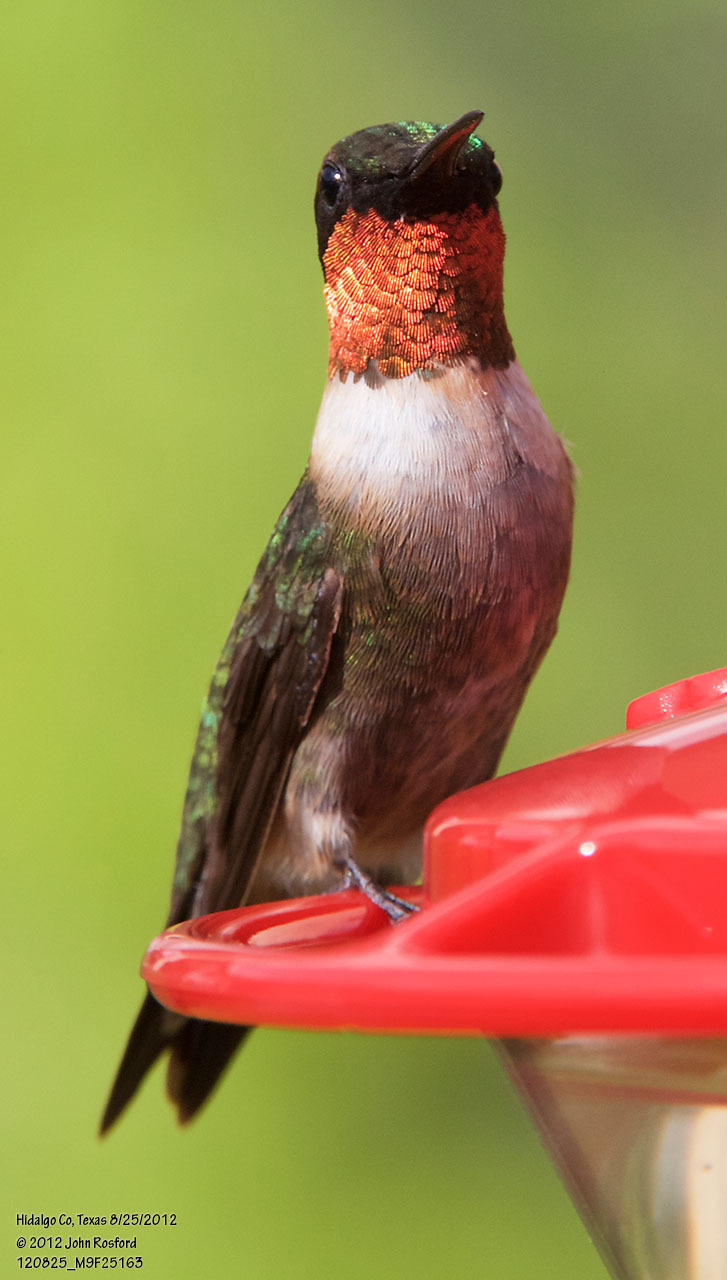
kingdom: Animalia
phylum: Chordata
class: Aves
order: Apodiformes
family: Trochilidae
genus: Archilochus
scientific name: Archilochus colubris
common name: Ruby-throated hummingbird
